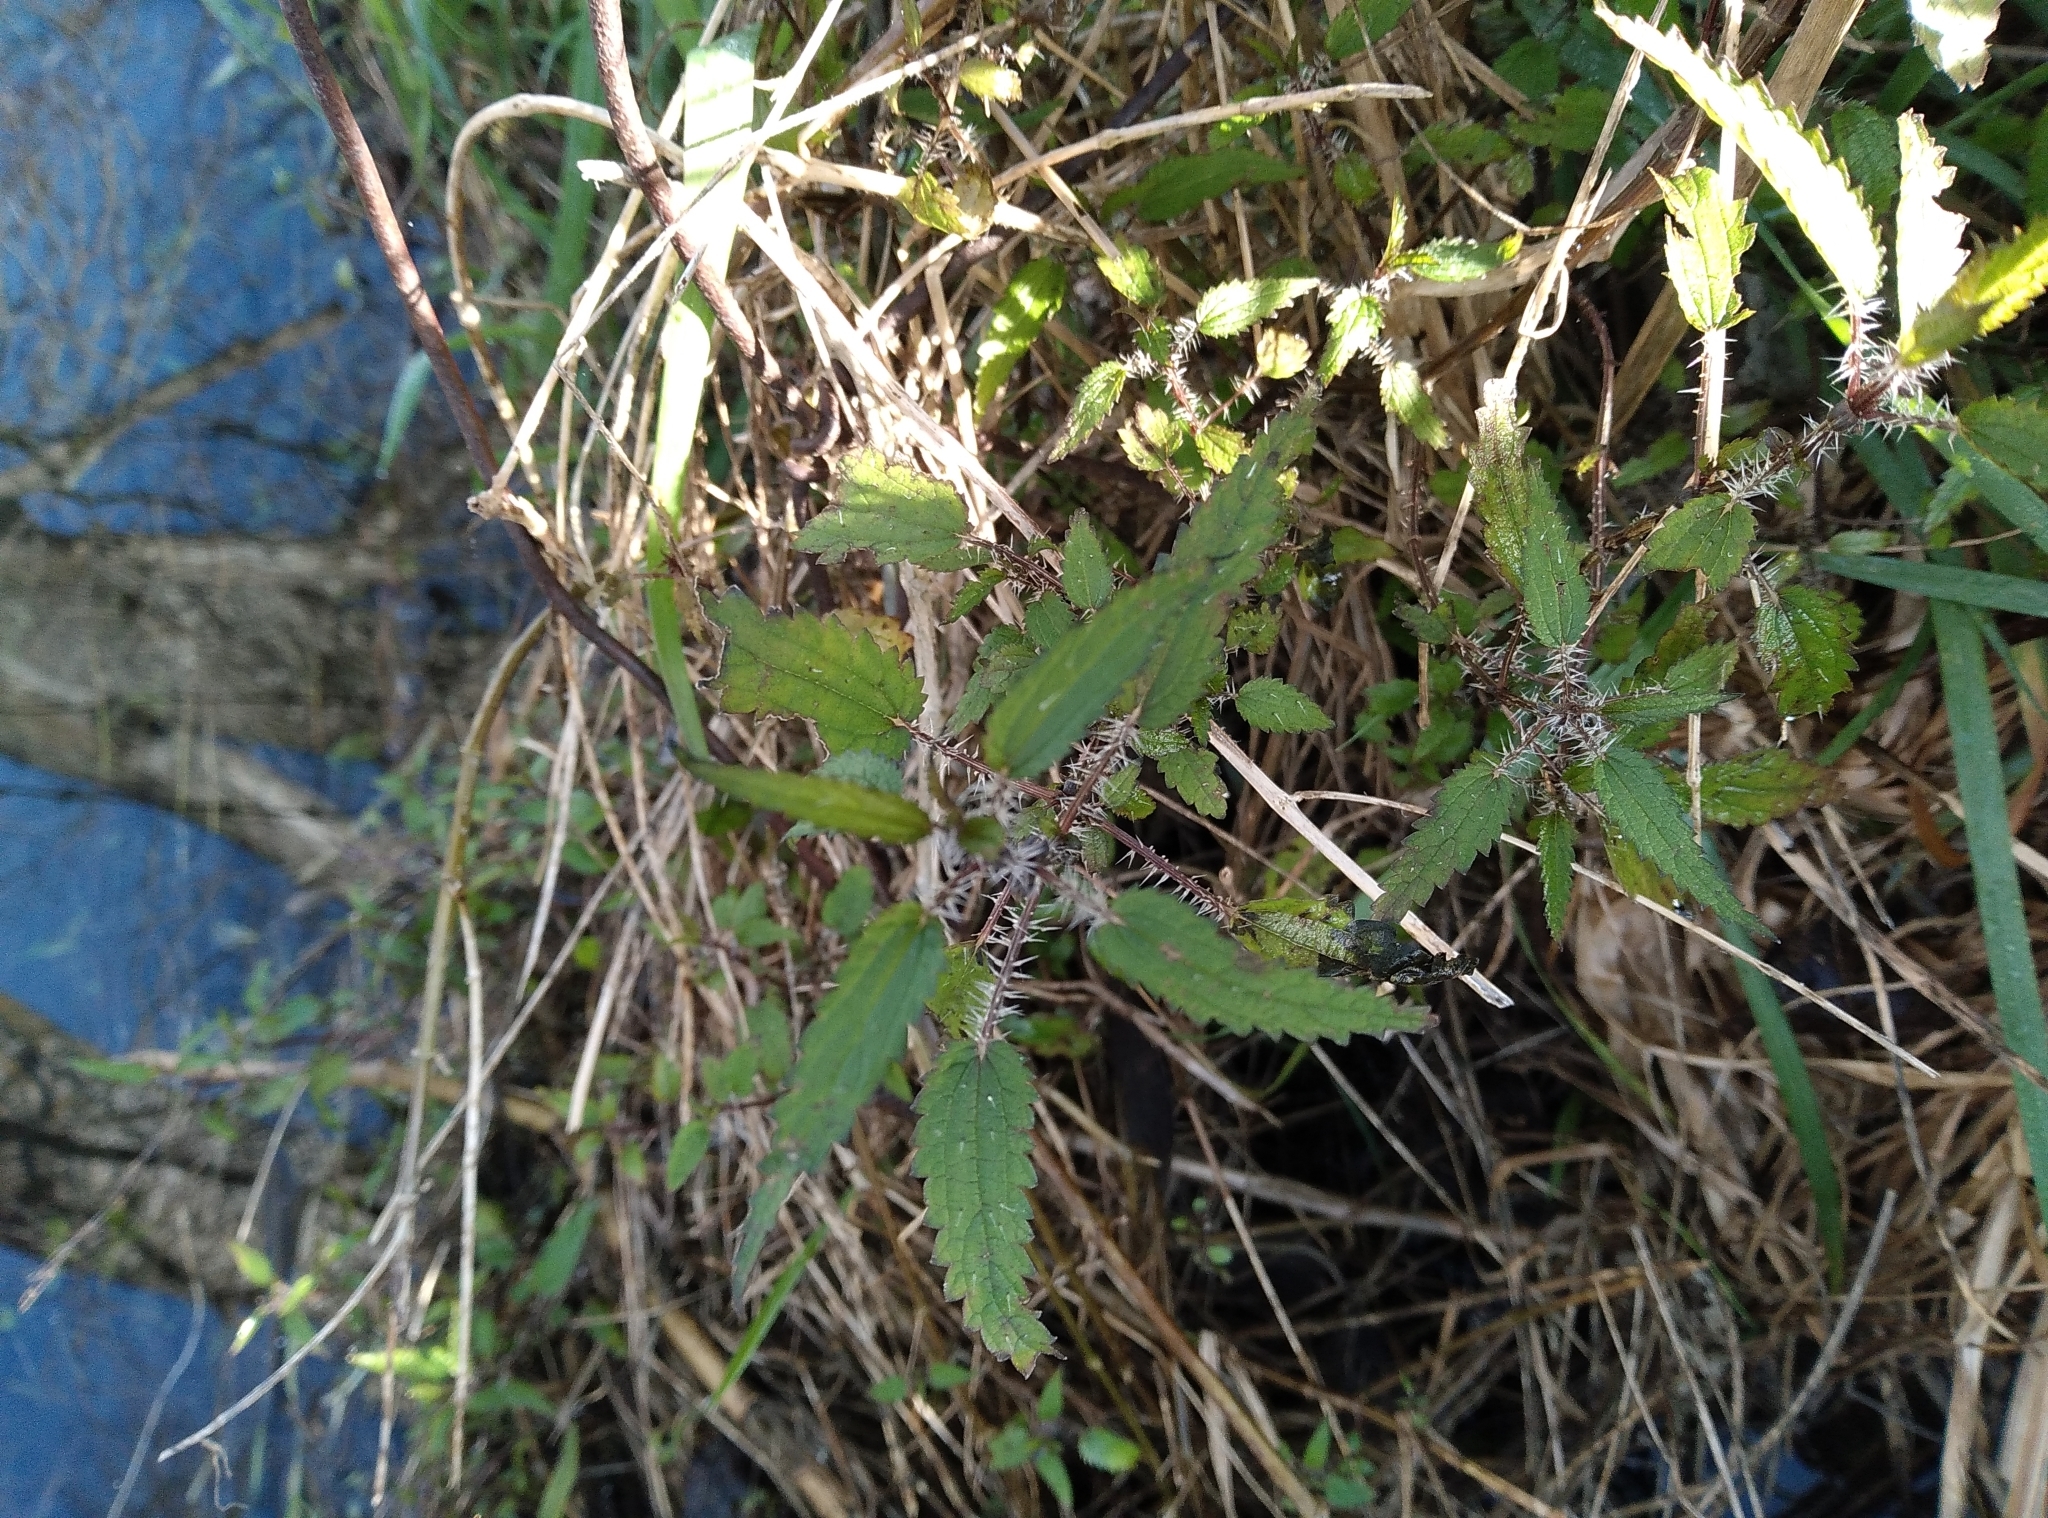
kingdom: Plantae
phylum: Tracheophyta
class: Magnoliopsida
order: Rosales
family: Urticaceae
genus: Urtica
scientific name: Urtica perconfusa
